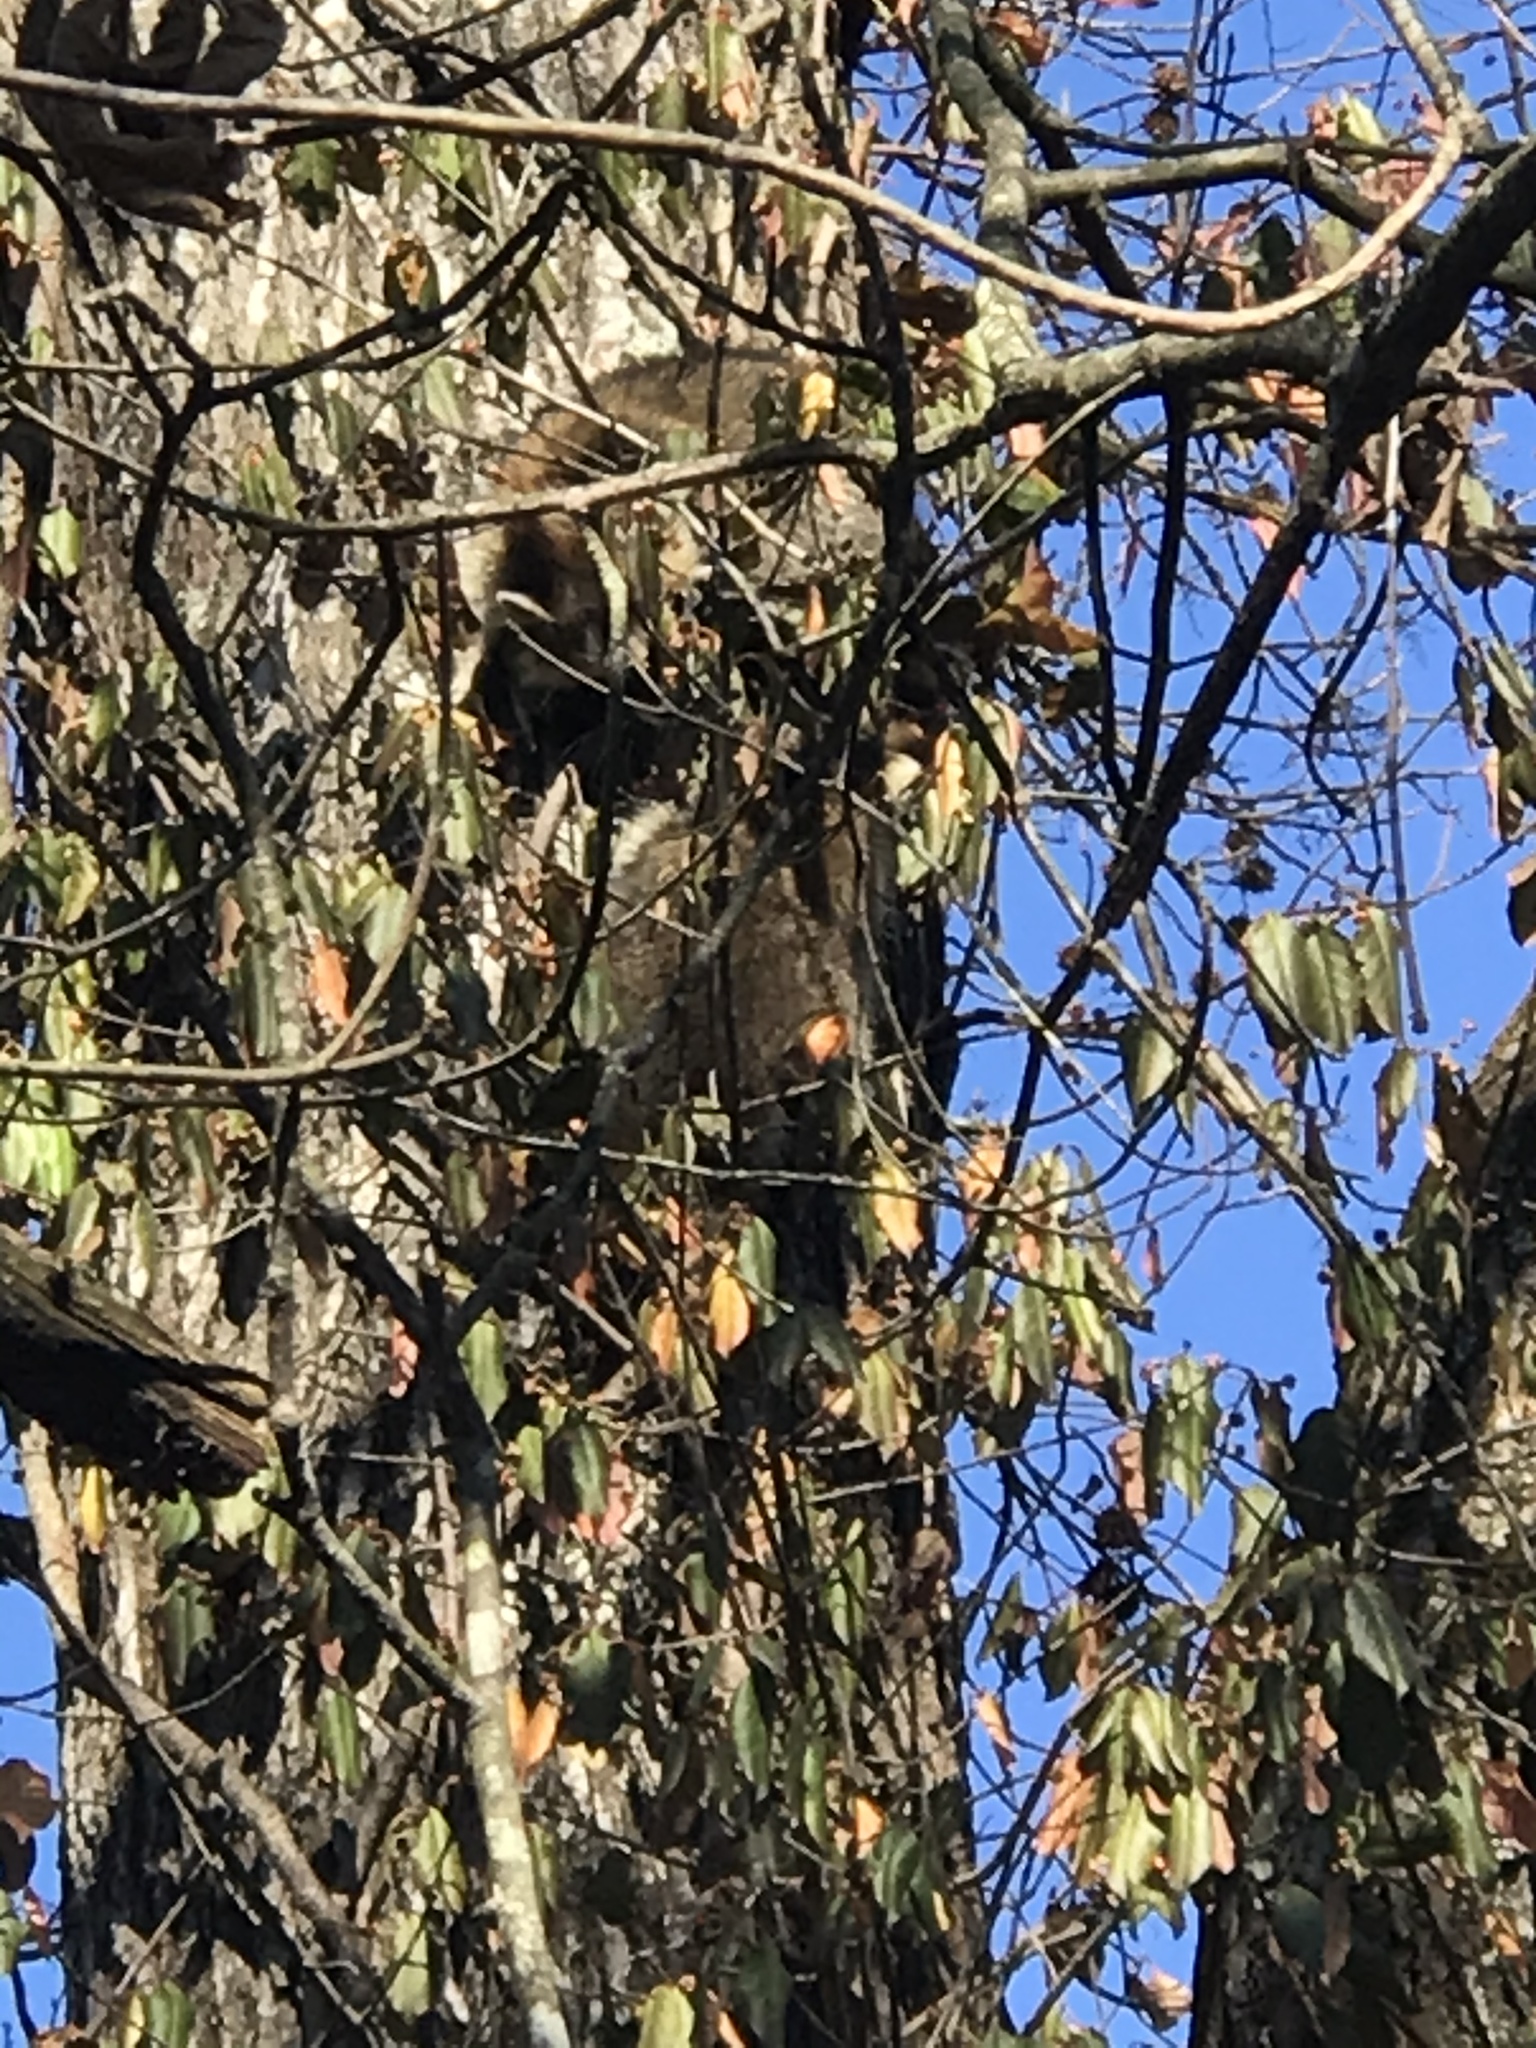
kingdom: Animalia
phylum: Chordata
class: Mammalia
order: Carnivora
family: Procyonidae
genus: Procyon
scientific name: Procyon lotor
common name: Raccoon
